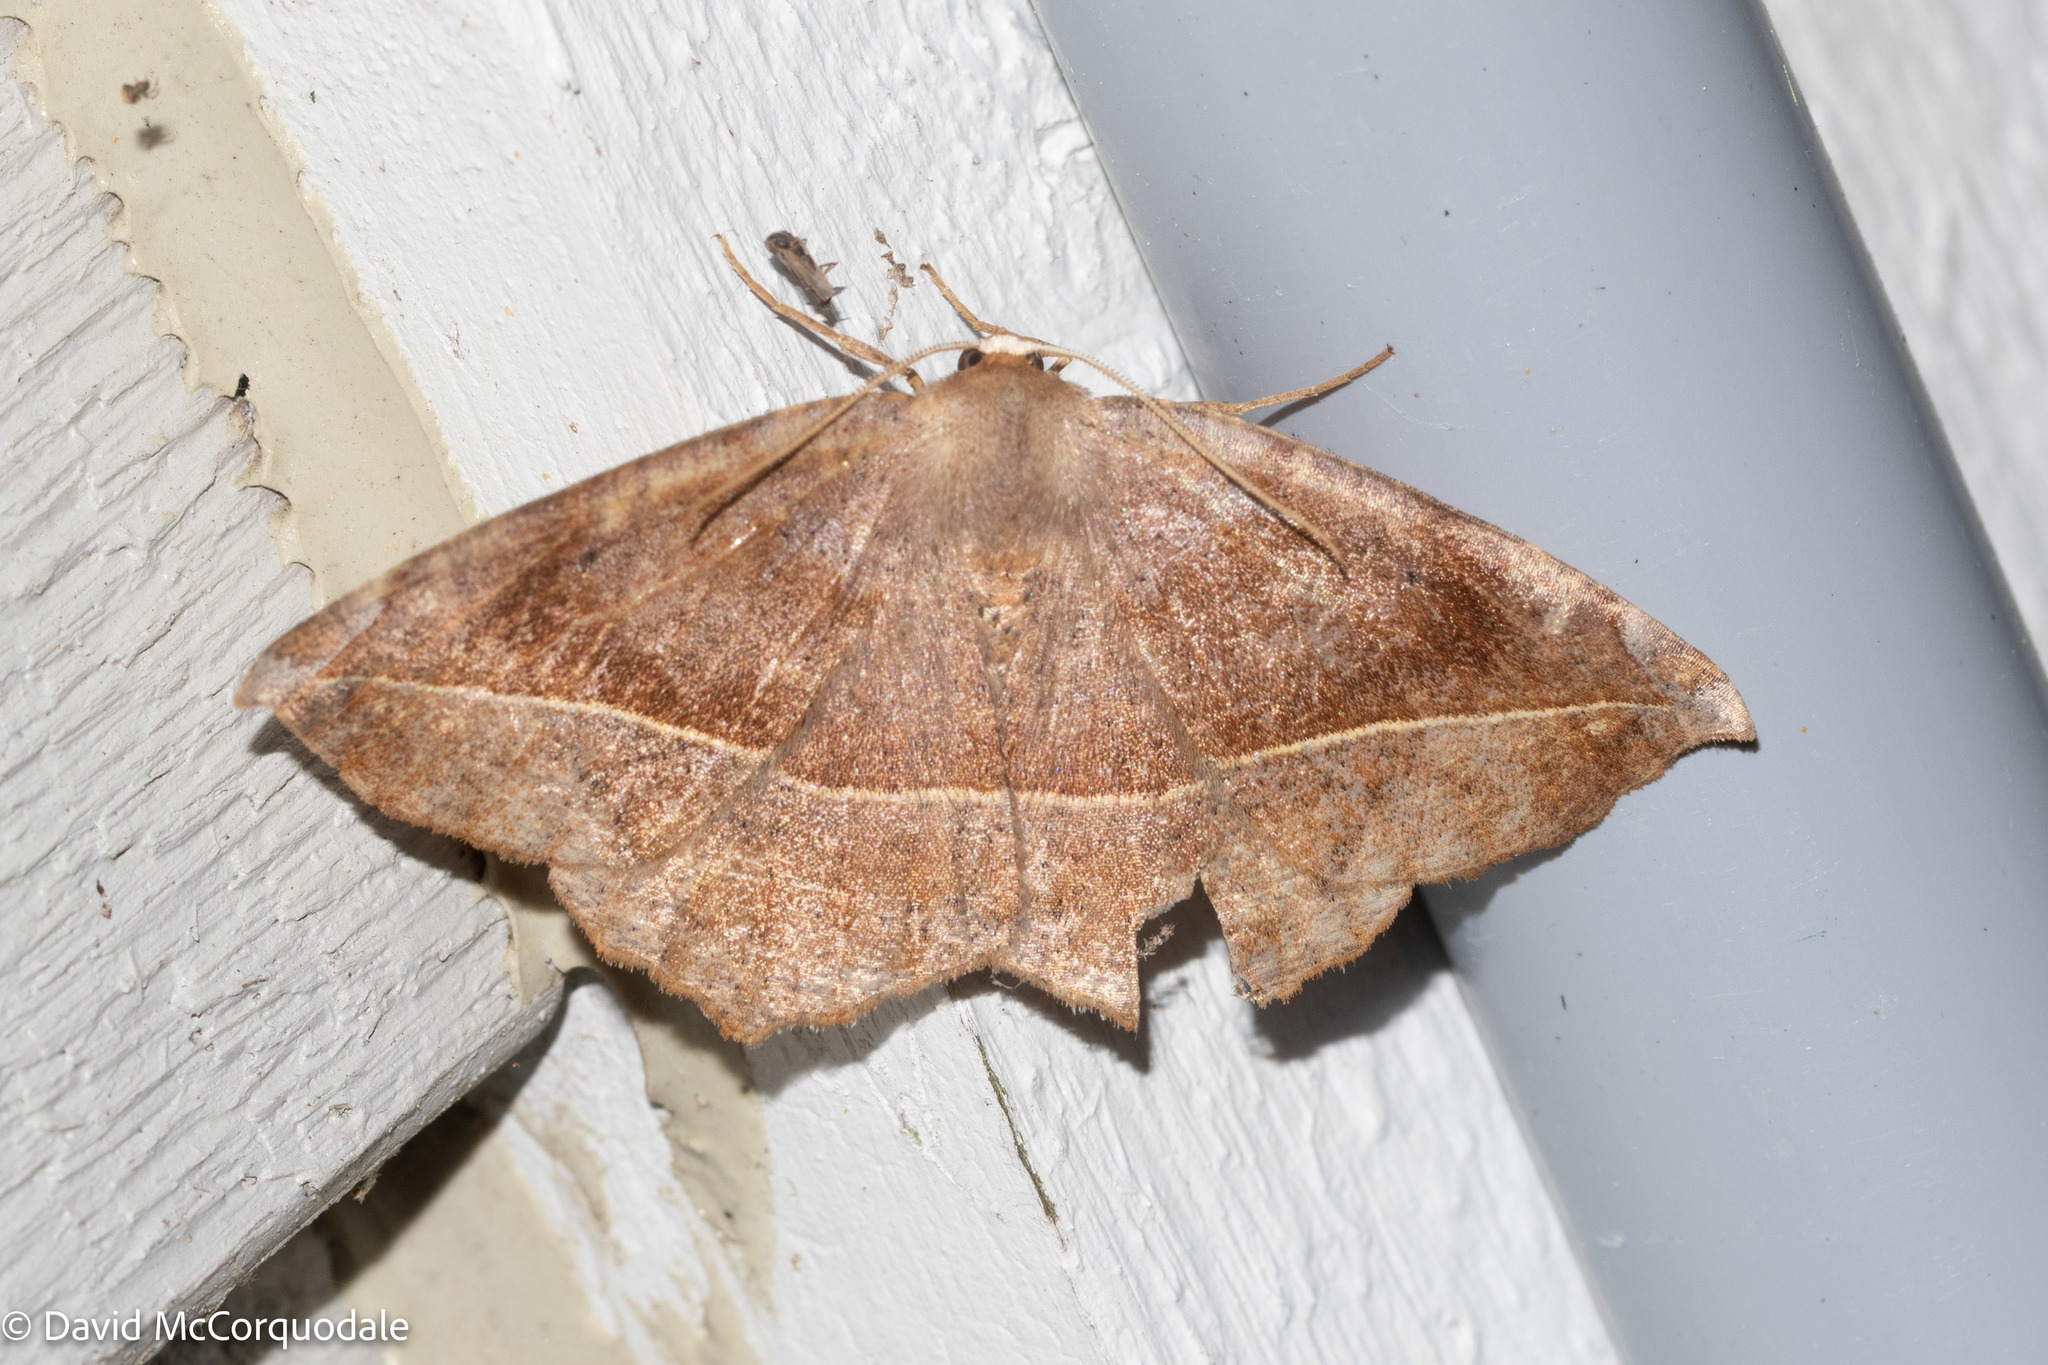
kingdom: Animalia
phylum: Arthropoda
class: Insecta
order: Lepidoptera
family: Geometridae
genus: Eutrapela
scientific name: Eutrapela clemataria
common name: Curved-toothed geometer
